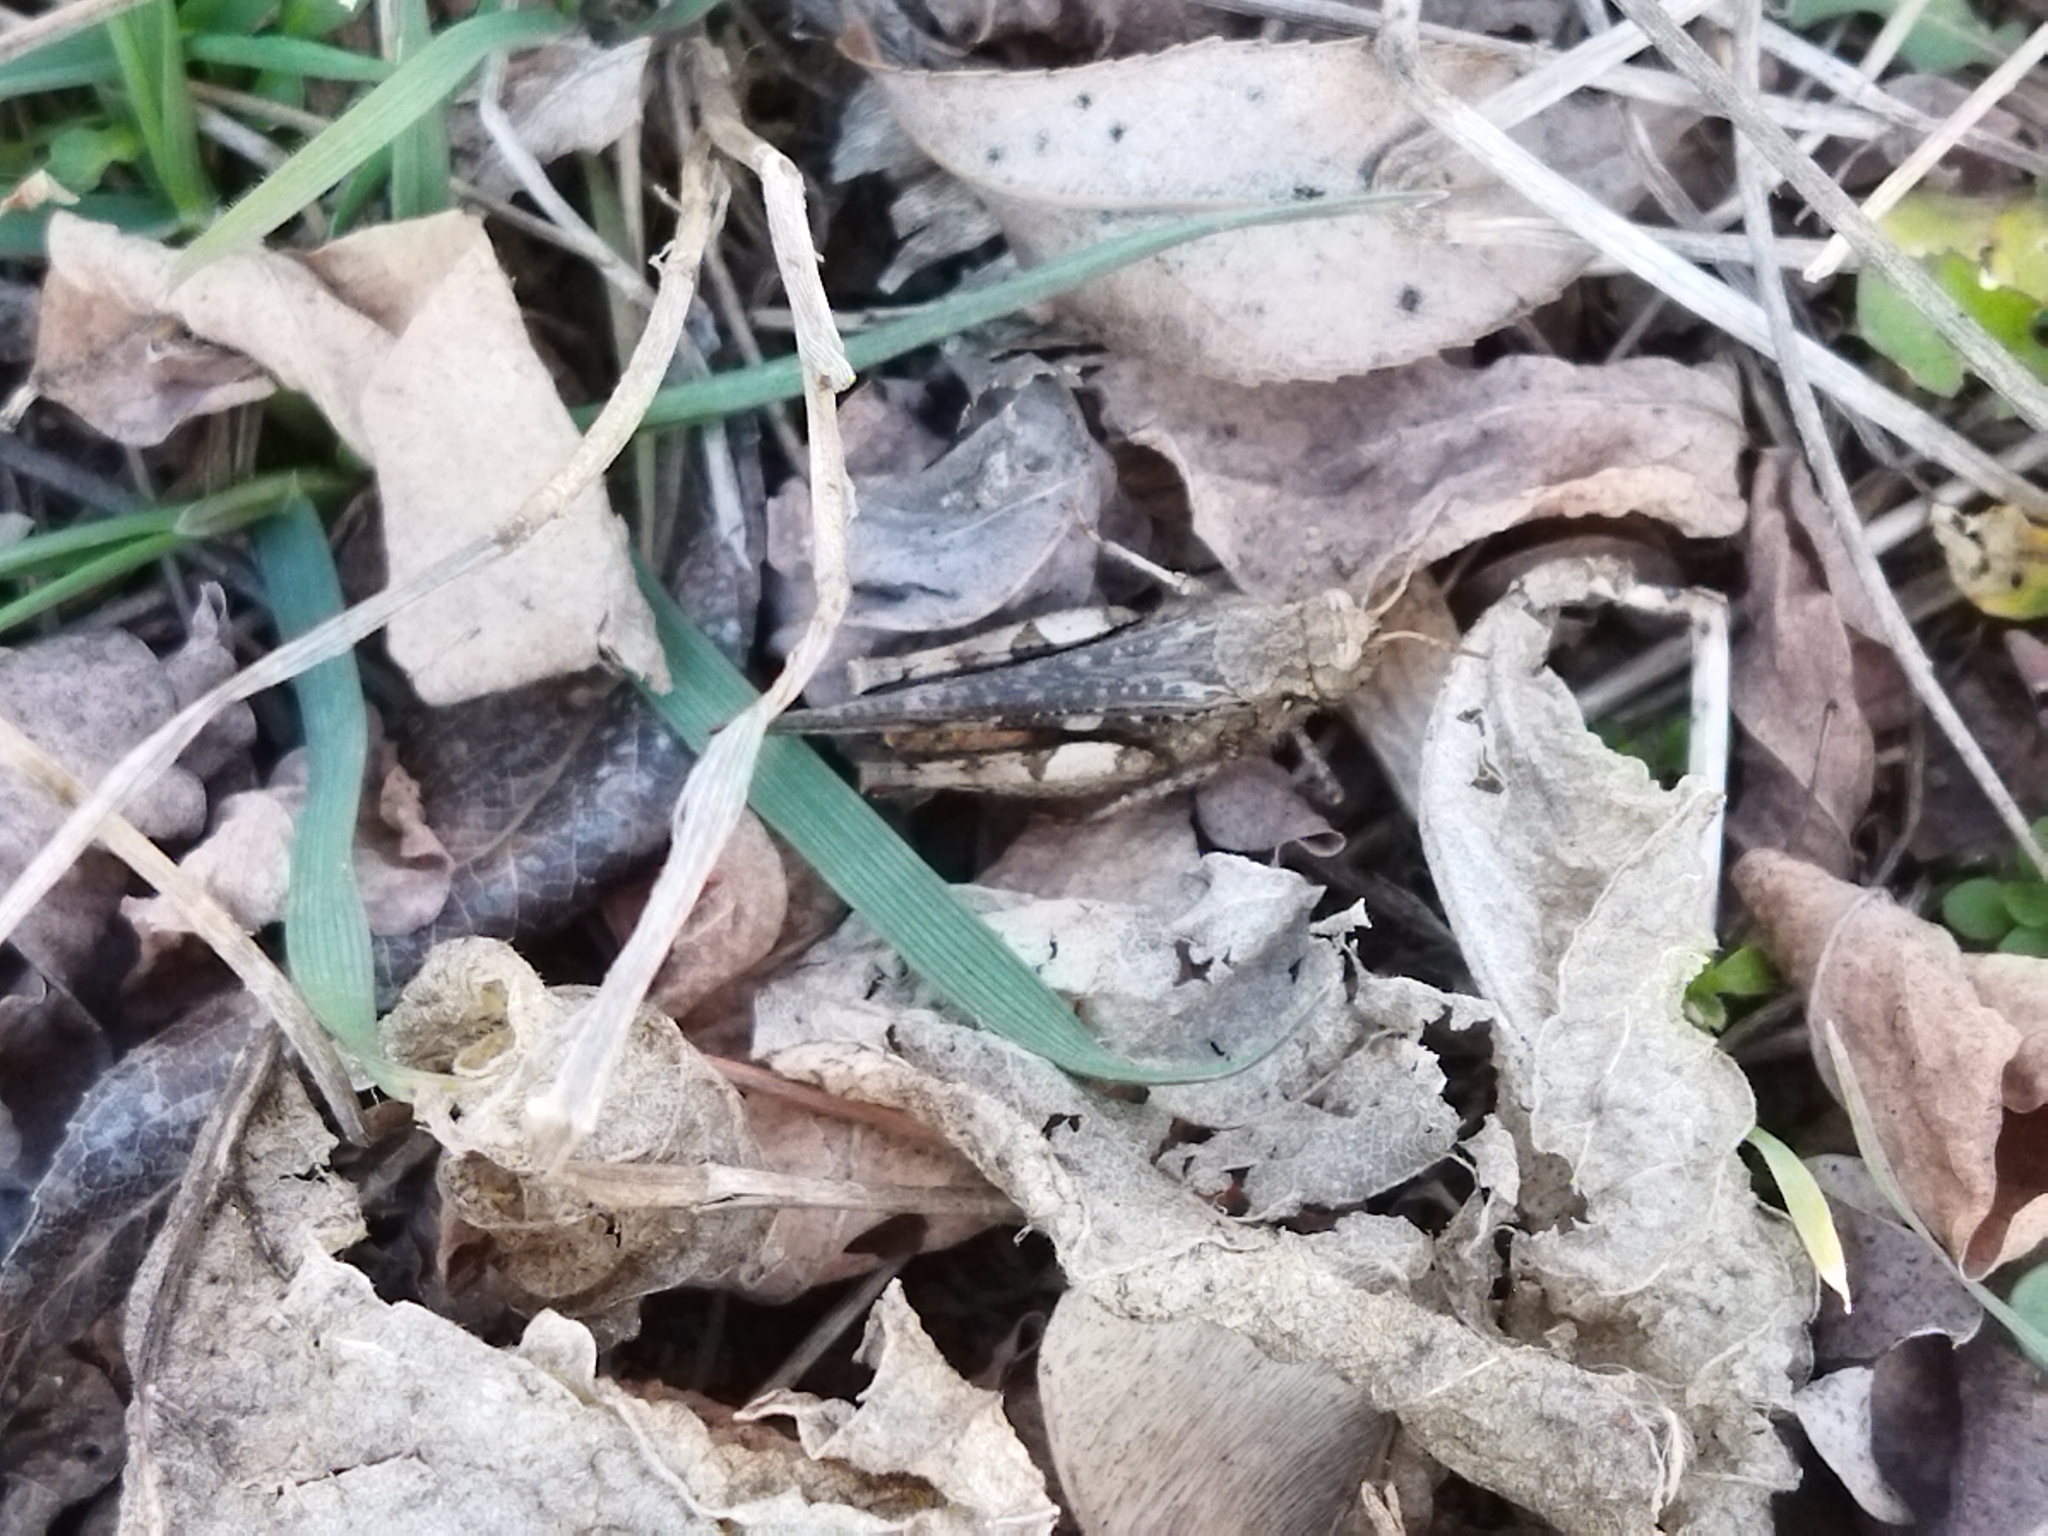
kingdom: Animalia
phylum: Arthropoda
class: Insecta
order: Orthoptera
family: Acrididae
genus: Acrotylus
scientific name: Acrotylus insubricus
